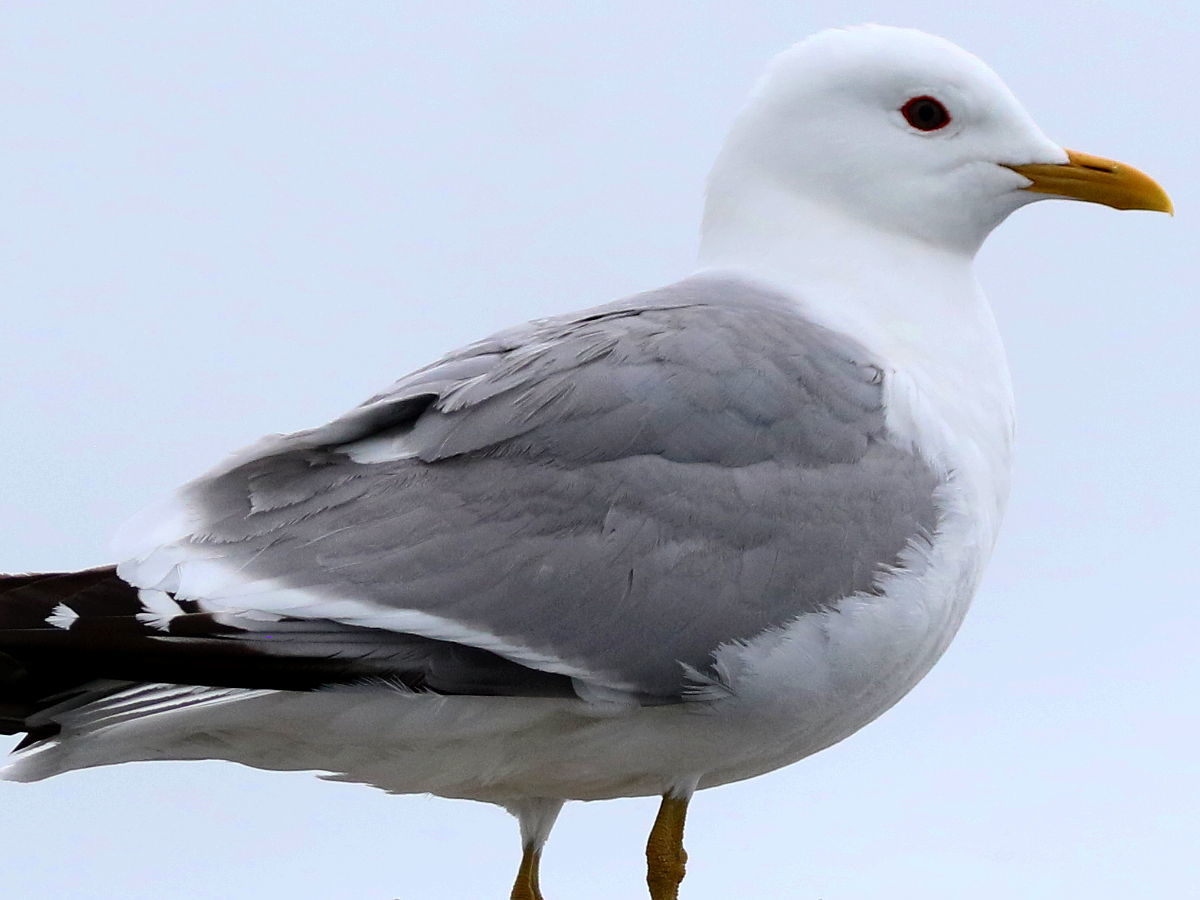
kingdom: Animalia
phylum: Chordata
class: Aves
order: Charadriiformes
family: Laridae
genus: Larus
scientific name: Larus canus
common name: Mew gull
